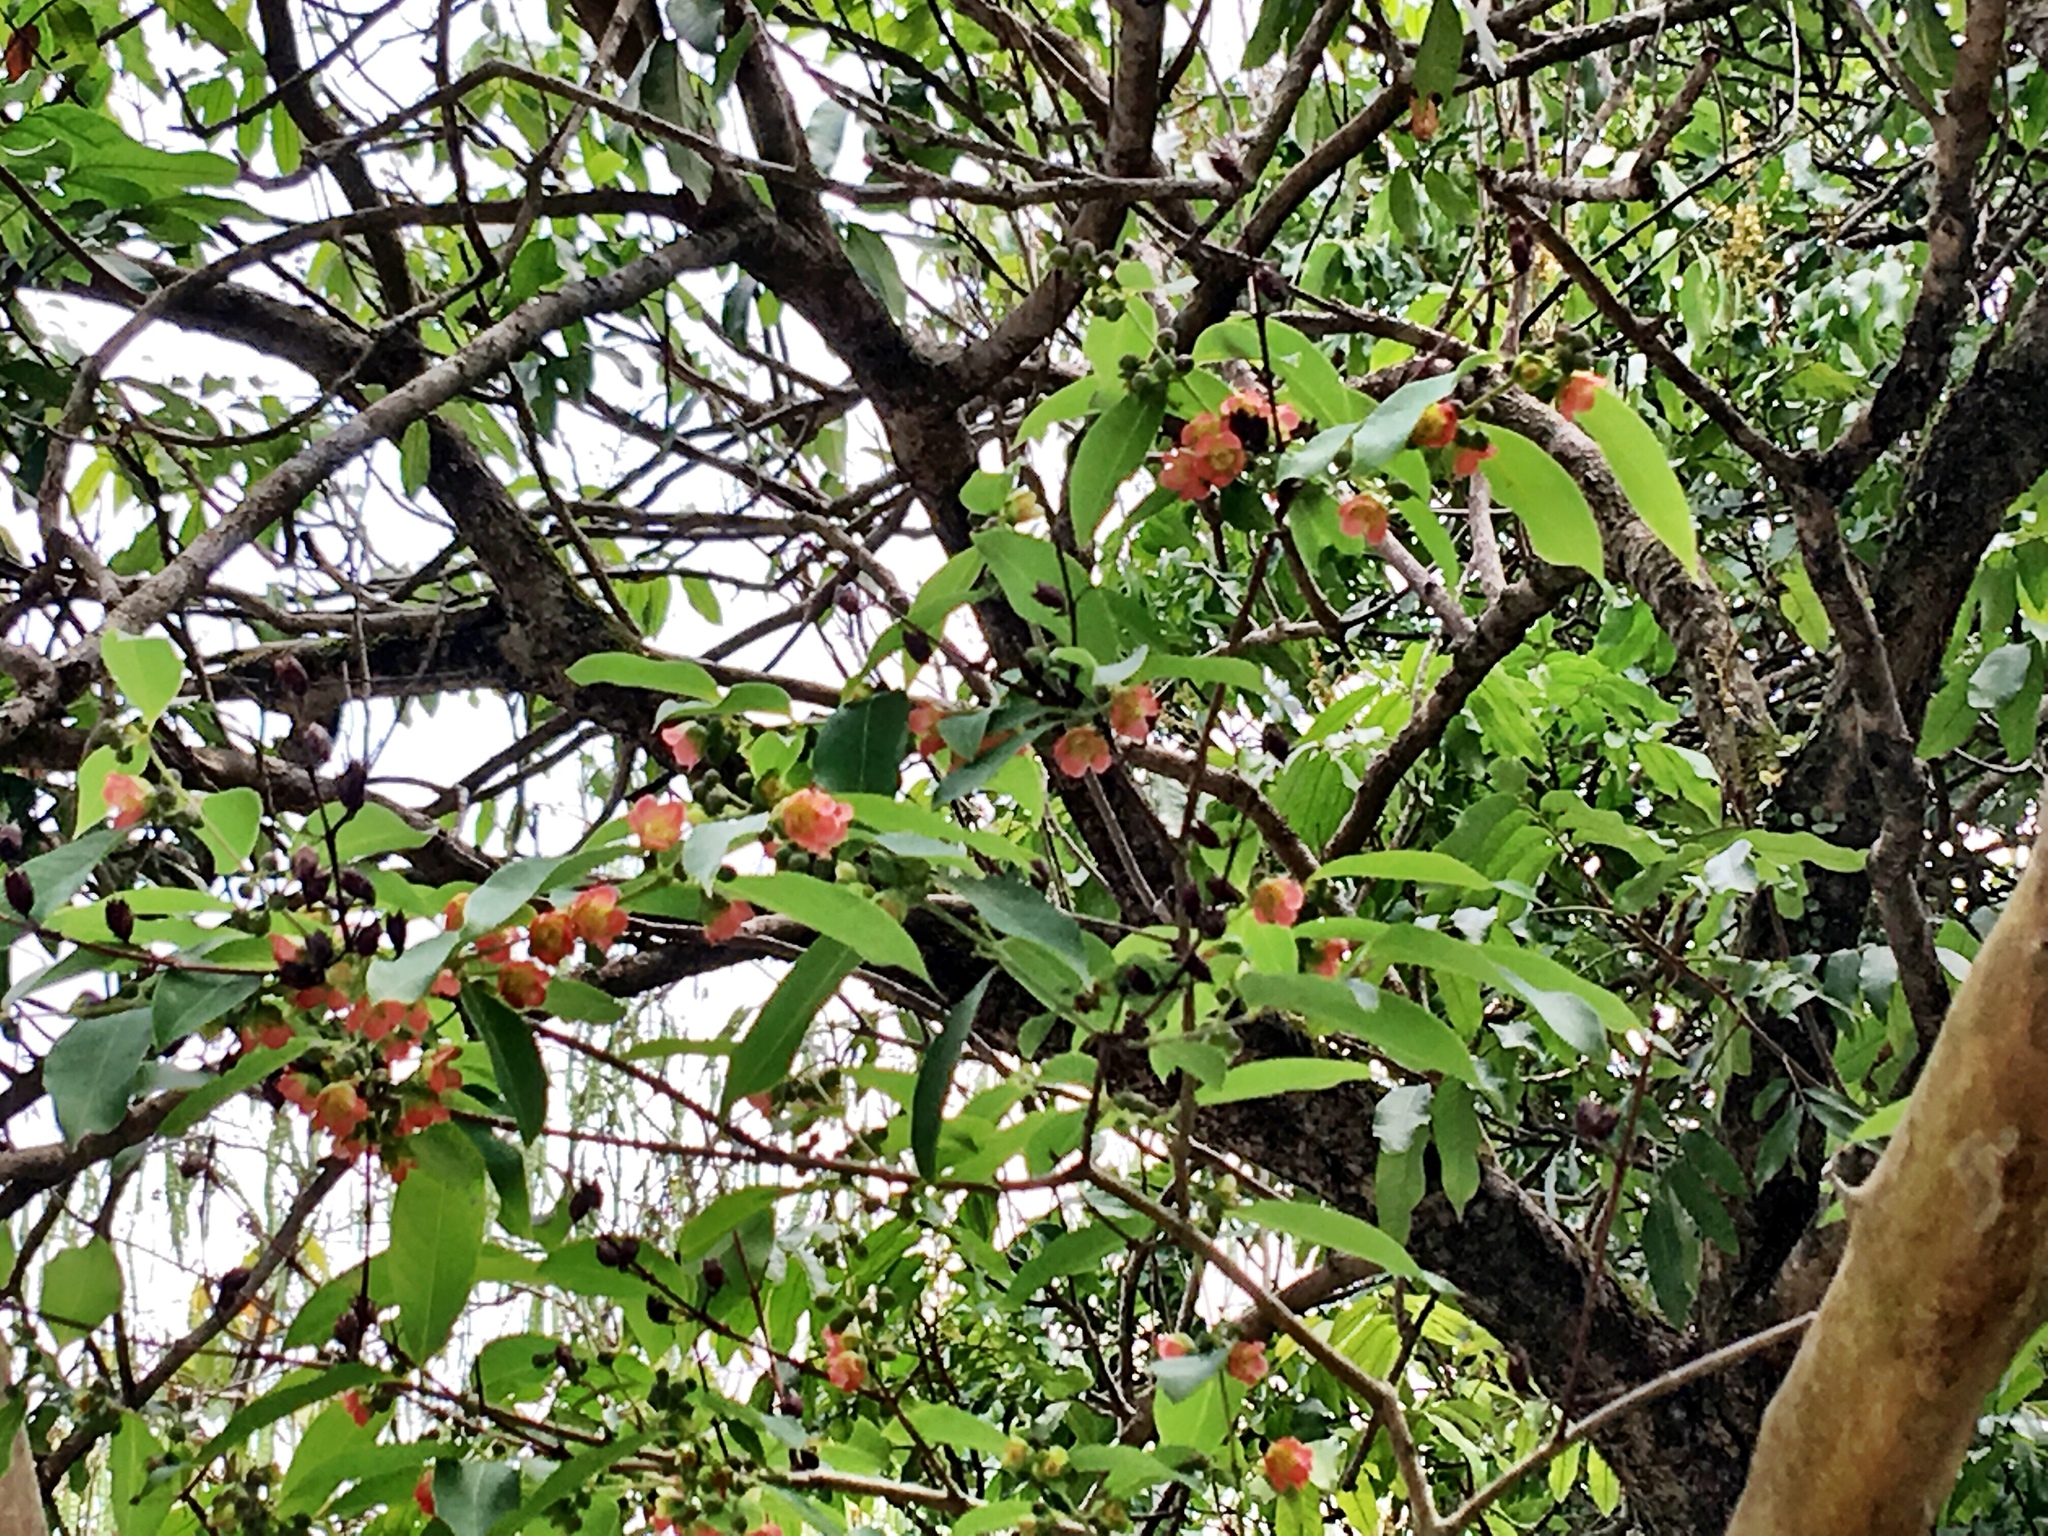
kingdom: Plantae
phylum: Tracheophyta
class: Magnoliopsida
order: Malpighiales
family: Hypericaceae
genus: Cratoxylum
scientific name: Cratoxylum cochinchinense
